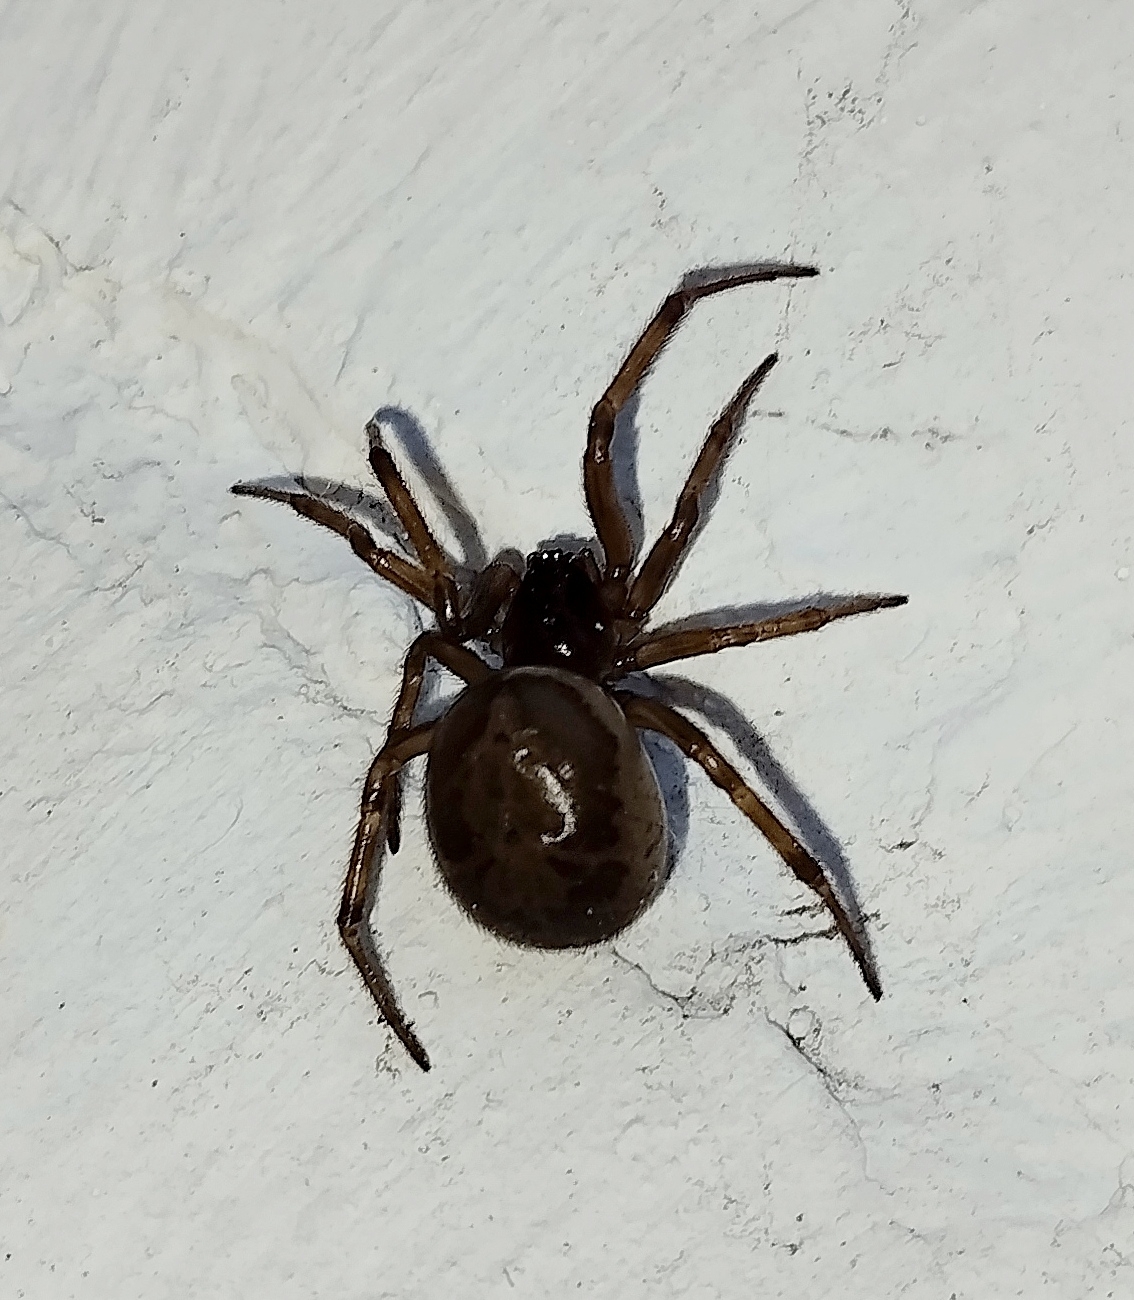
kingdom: Animalia
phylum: Arthropoda
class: Arachnida
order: Araneae
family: Theridiidae
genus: Steatoda
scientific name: Steatoda nobilis
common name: Cobweb weaver
